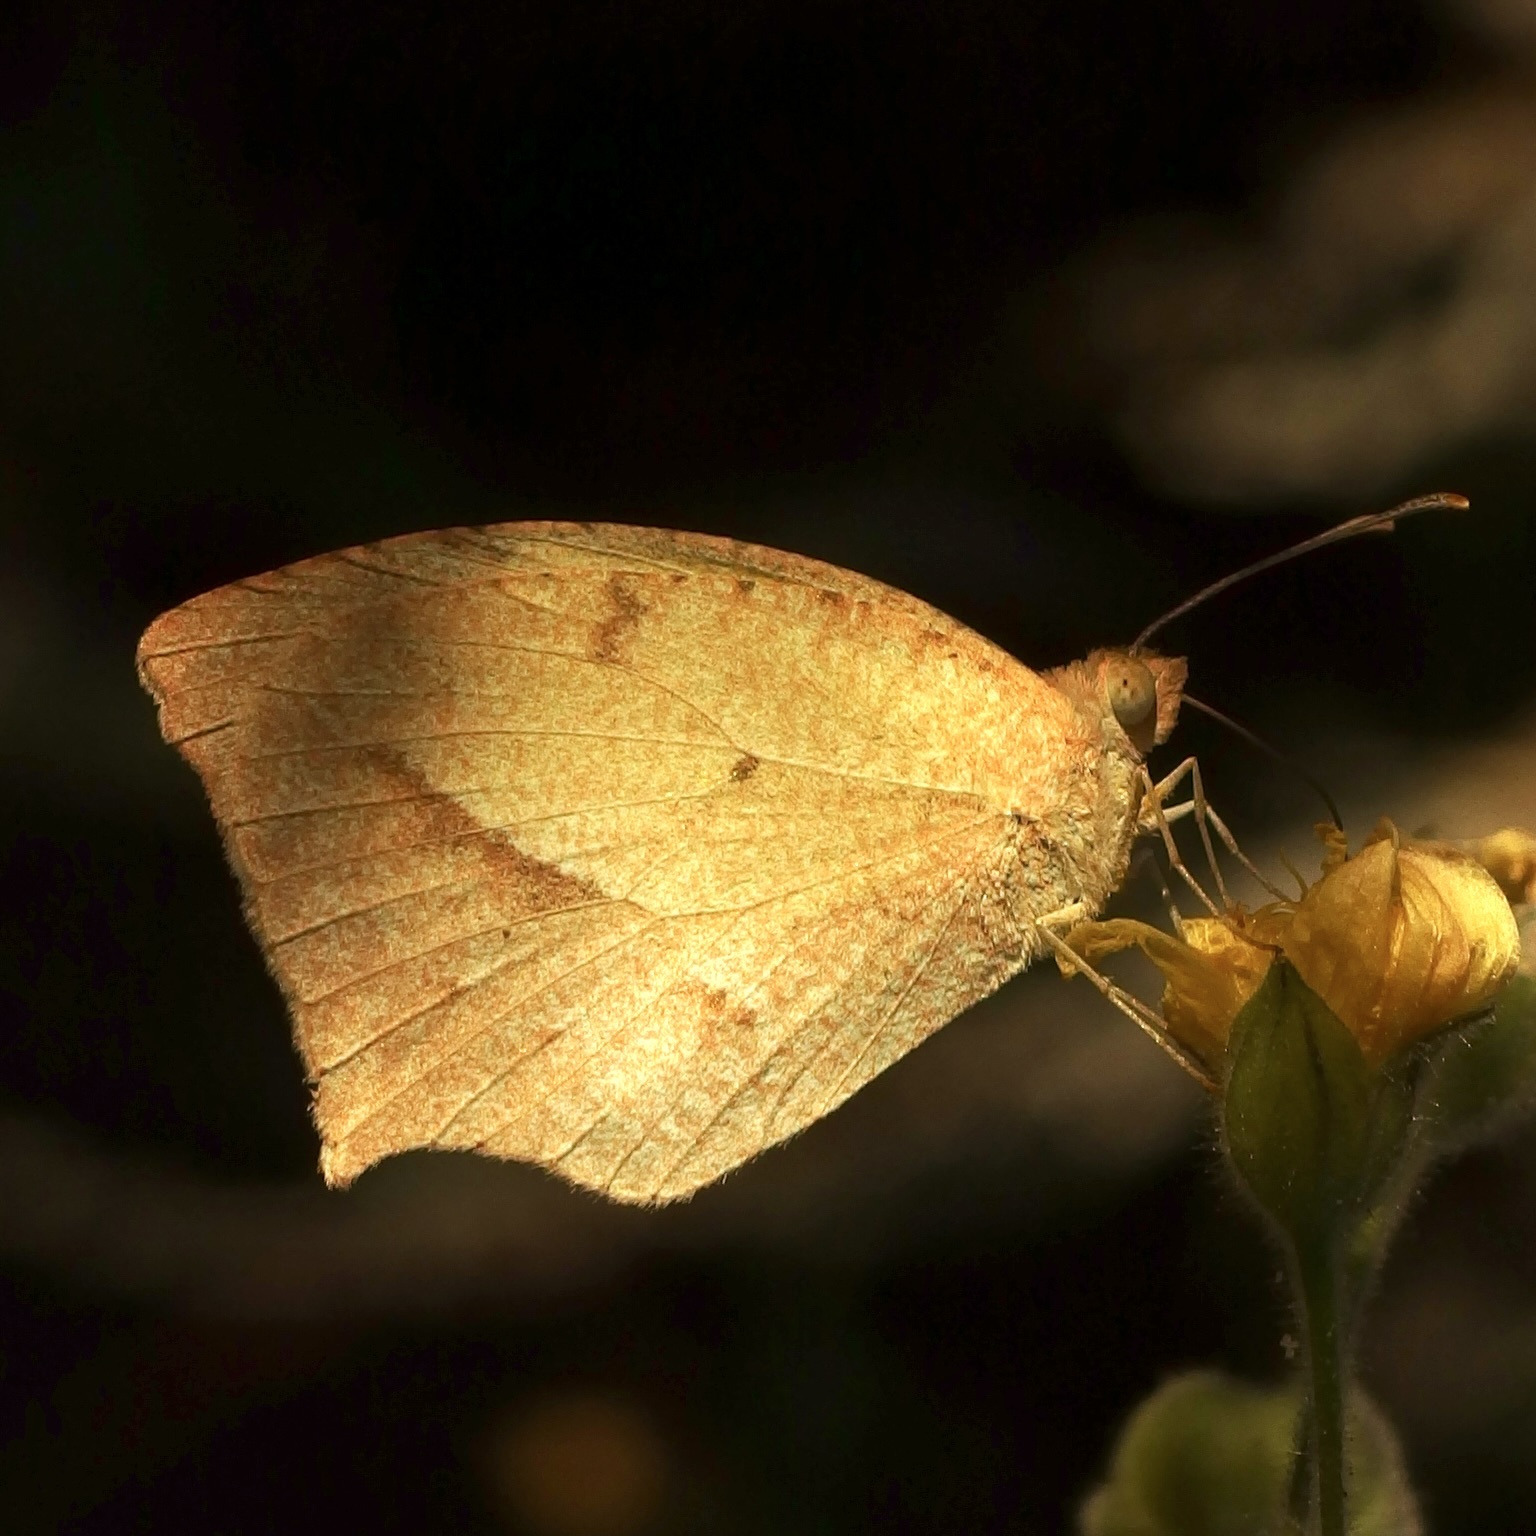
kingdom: Animalia
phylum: Arthropoda
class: Insecta
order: Lepidoptera
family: Pieridae
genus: Abaeis
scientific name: Abaeis mexicana
